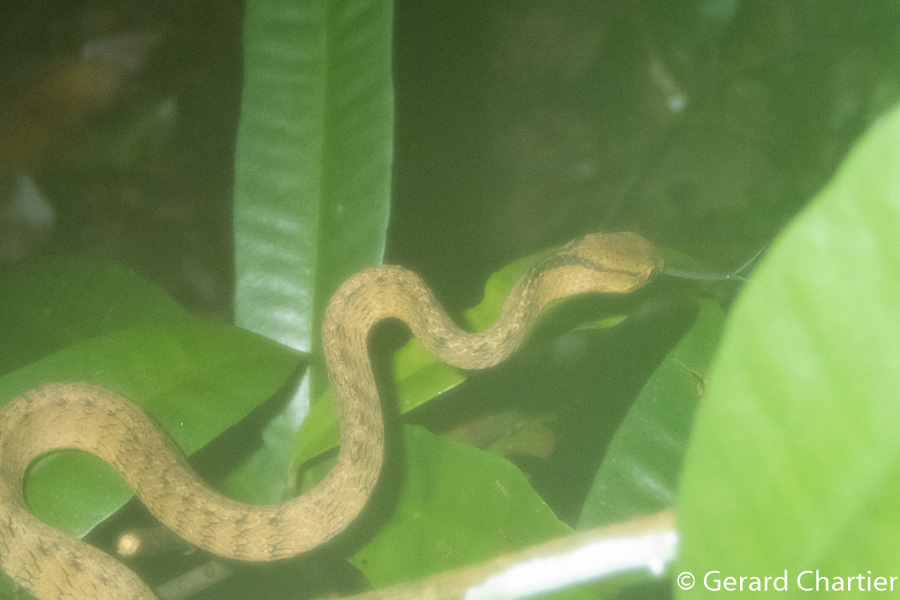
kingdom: Animalia
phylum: Chordata
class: Squamata
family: Pareidae
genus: Pareas
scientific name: Pareas carinatus
